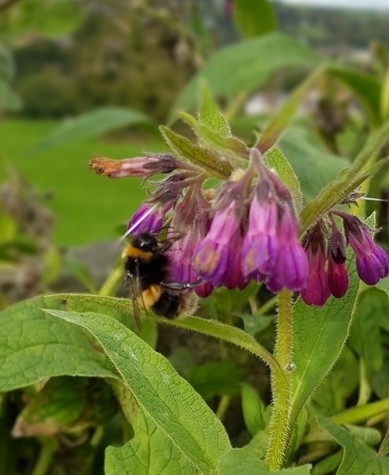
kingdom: Animalia
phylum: Arthropoda
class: Insecta
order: Hymenoptera
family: Apidae
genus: Bombus
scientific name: Bombus terrestris
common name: Buff-tailed bumblebee
